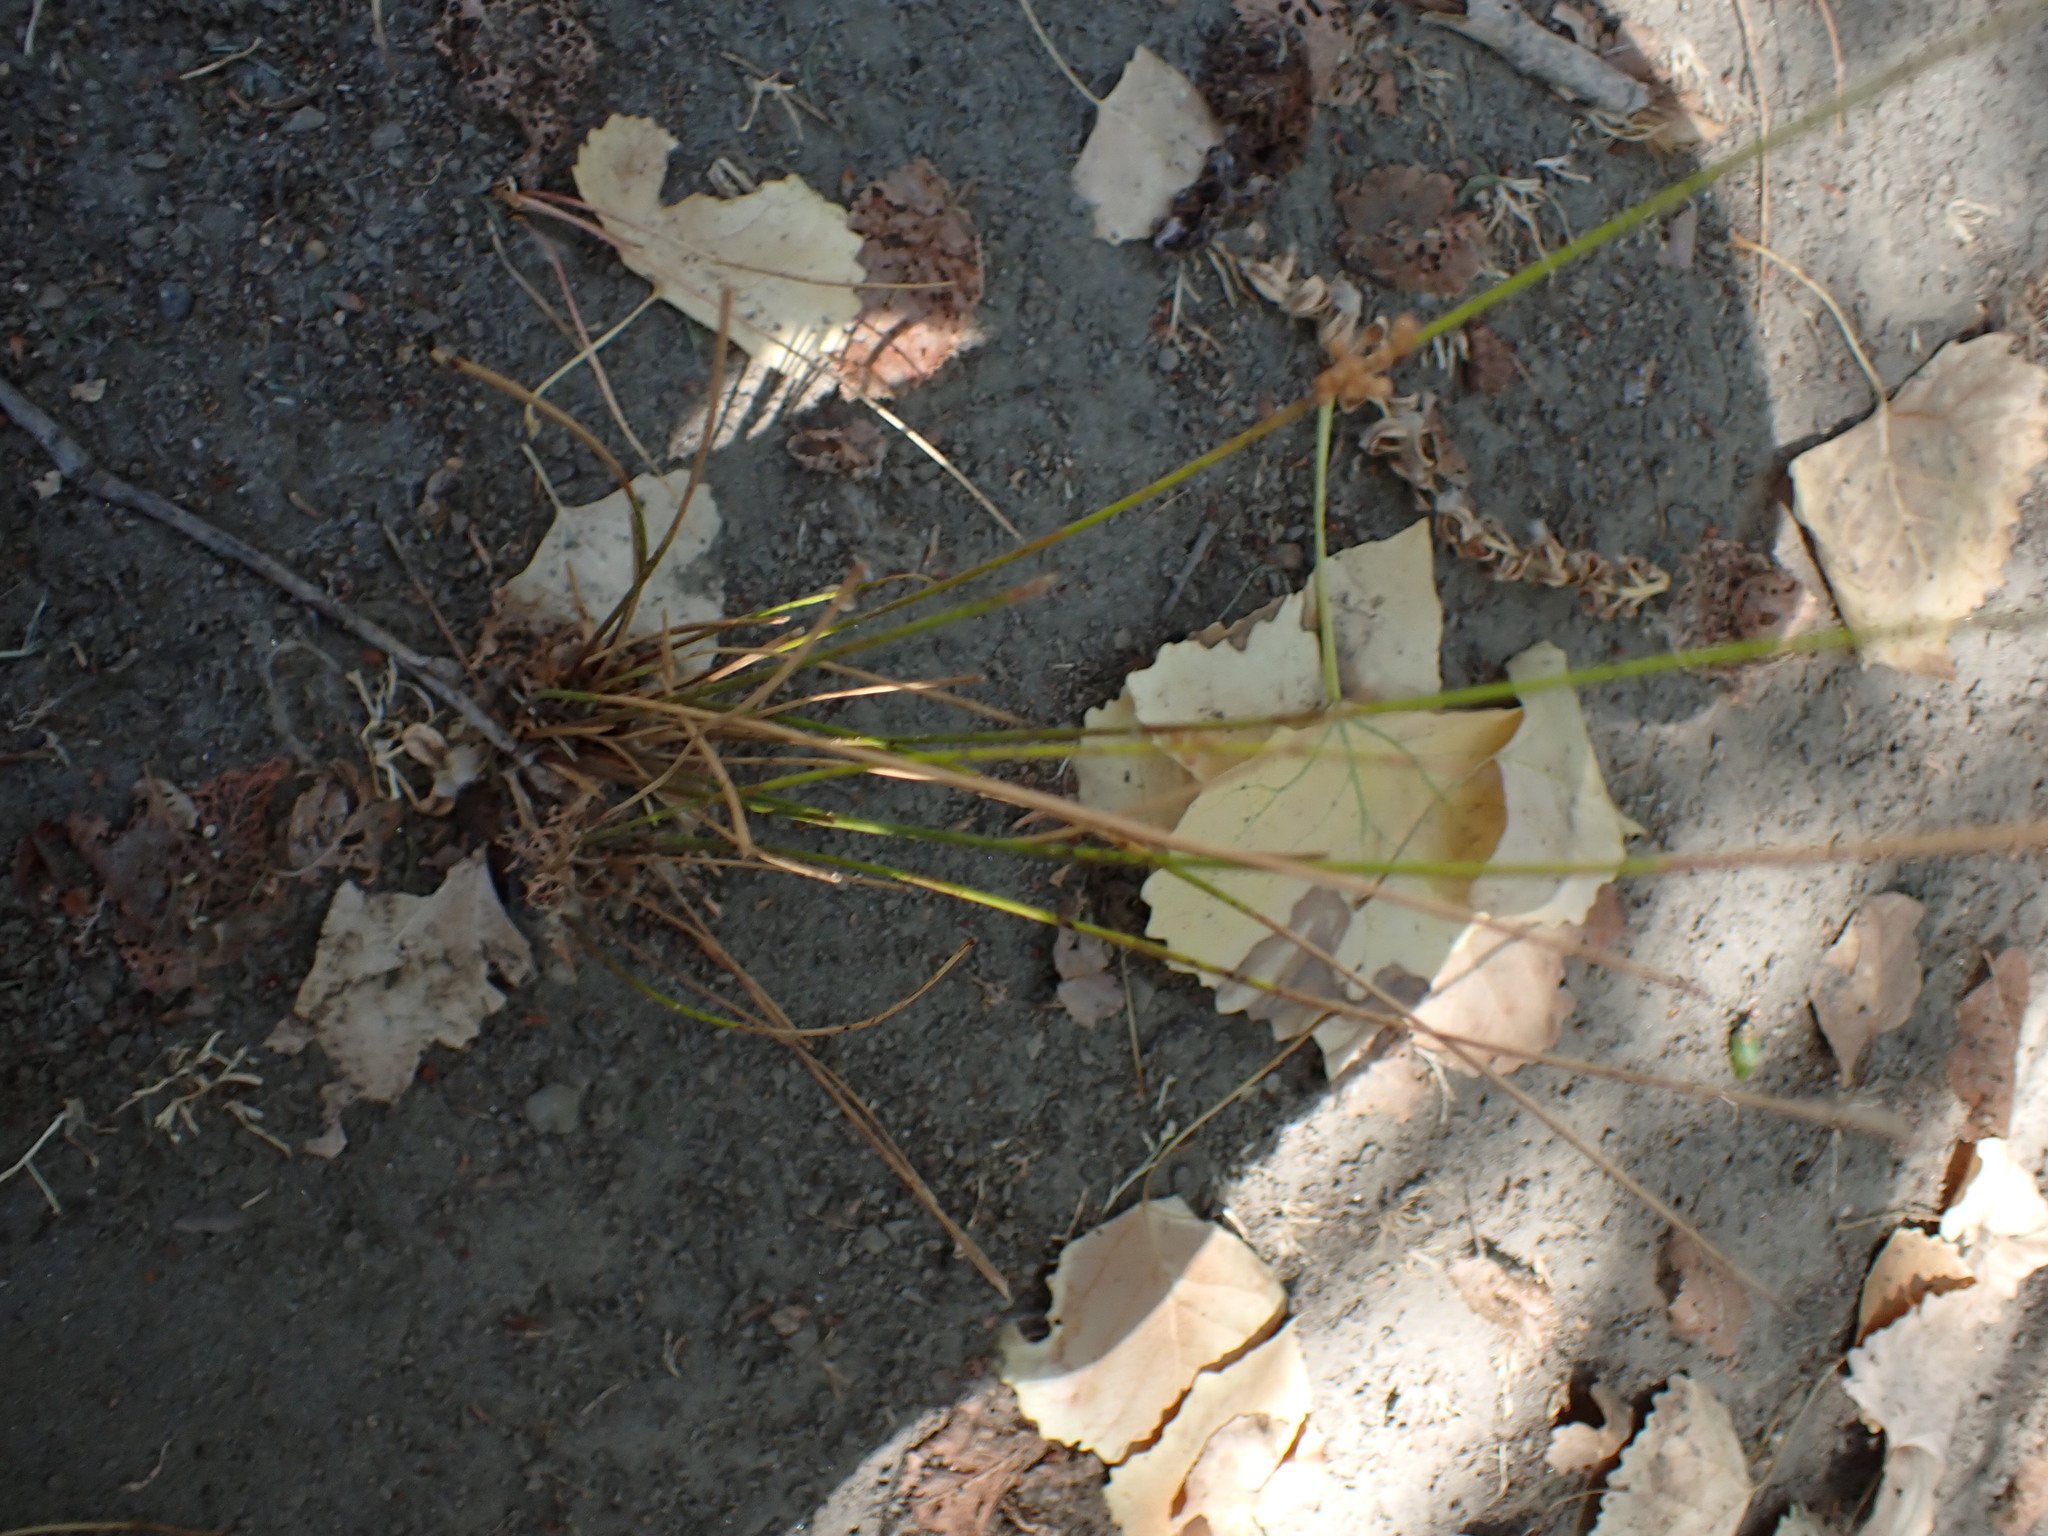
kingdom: Plantae
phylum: Tracheophyta
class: Liliopsida
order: Poales
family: Juncaceae
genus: Juncus
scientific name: Juncus usitatus
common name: Rush
